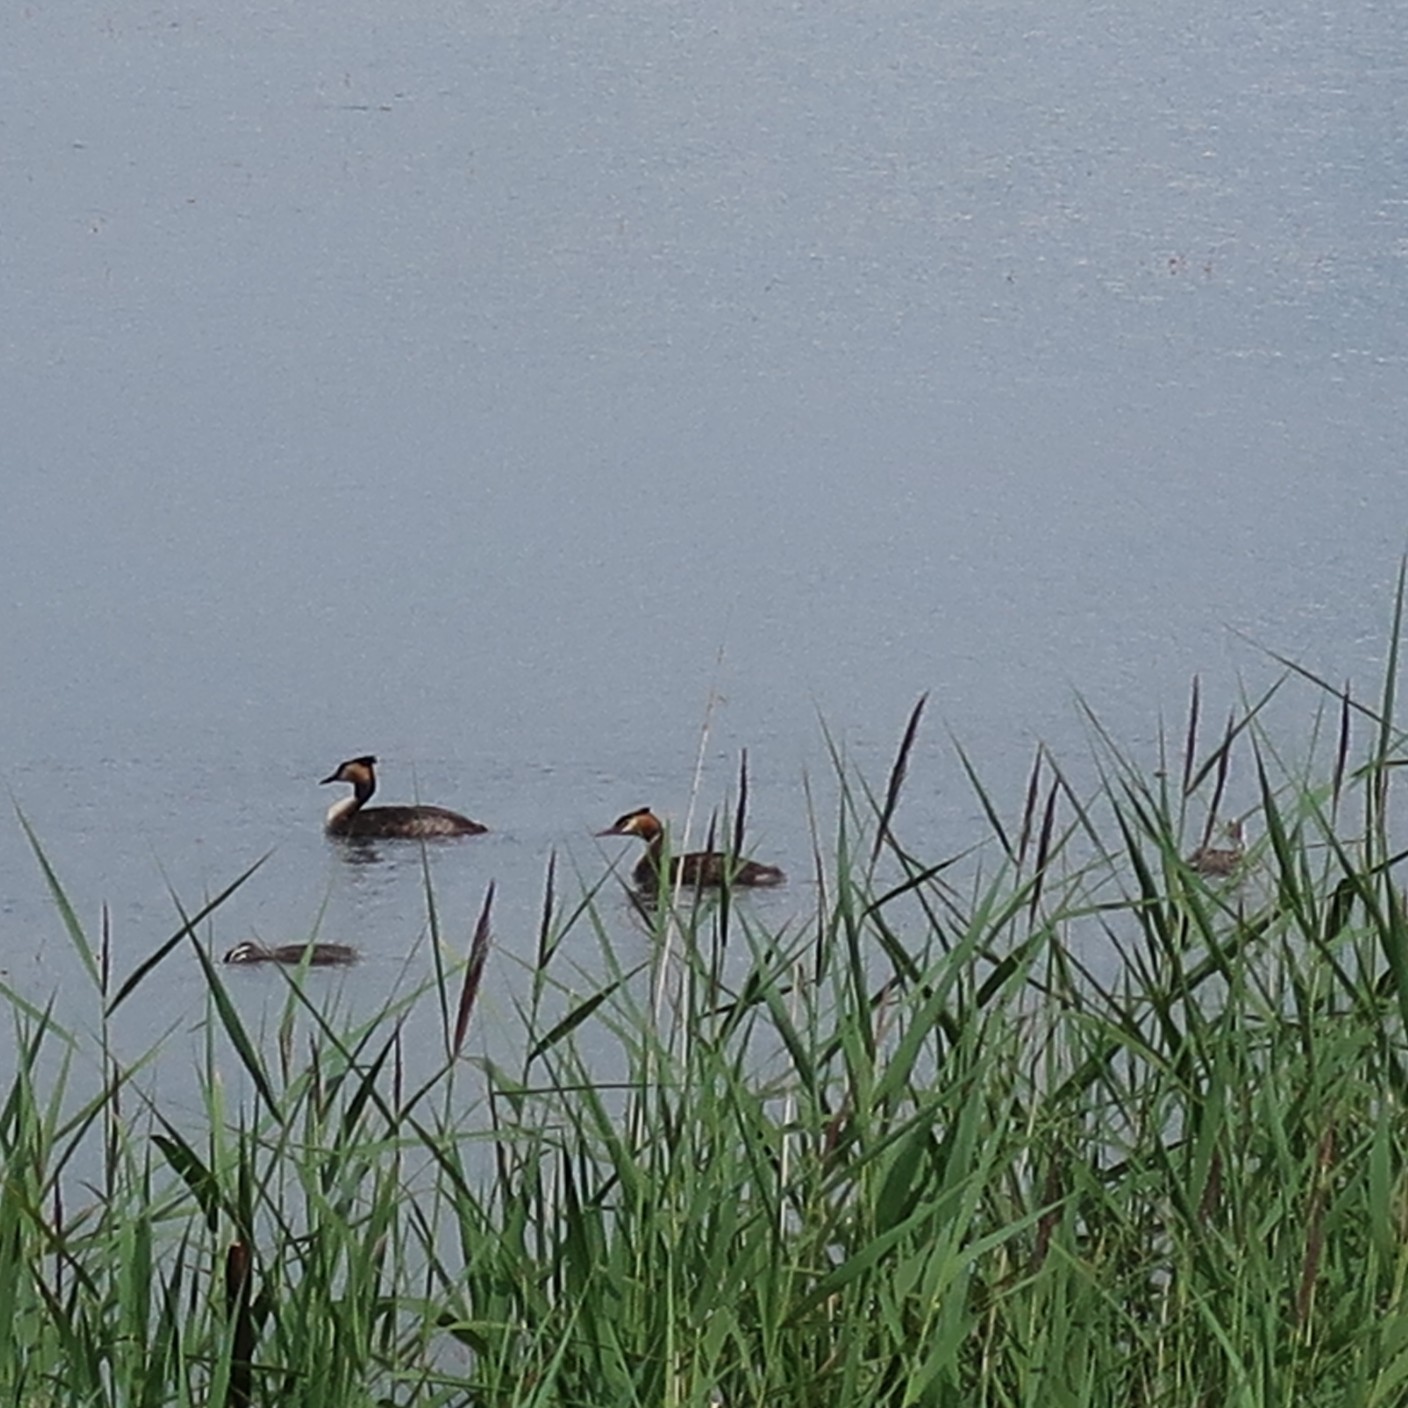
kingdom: Animalia
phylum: Chordata
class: Aves
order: Podicipediformes
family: Podicipedidae
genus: Podiceps
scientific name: Podiceps cristatus
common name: Great crested grebe
